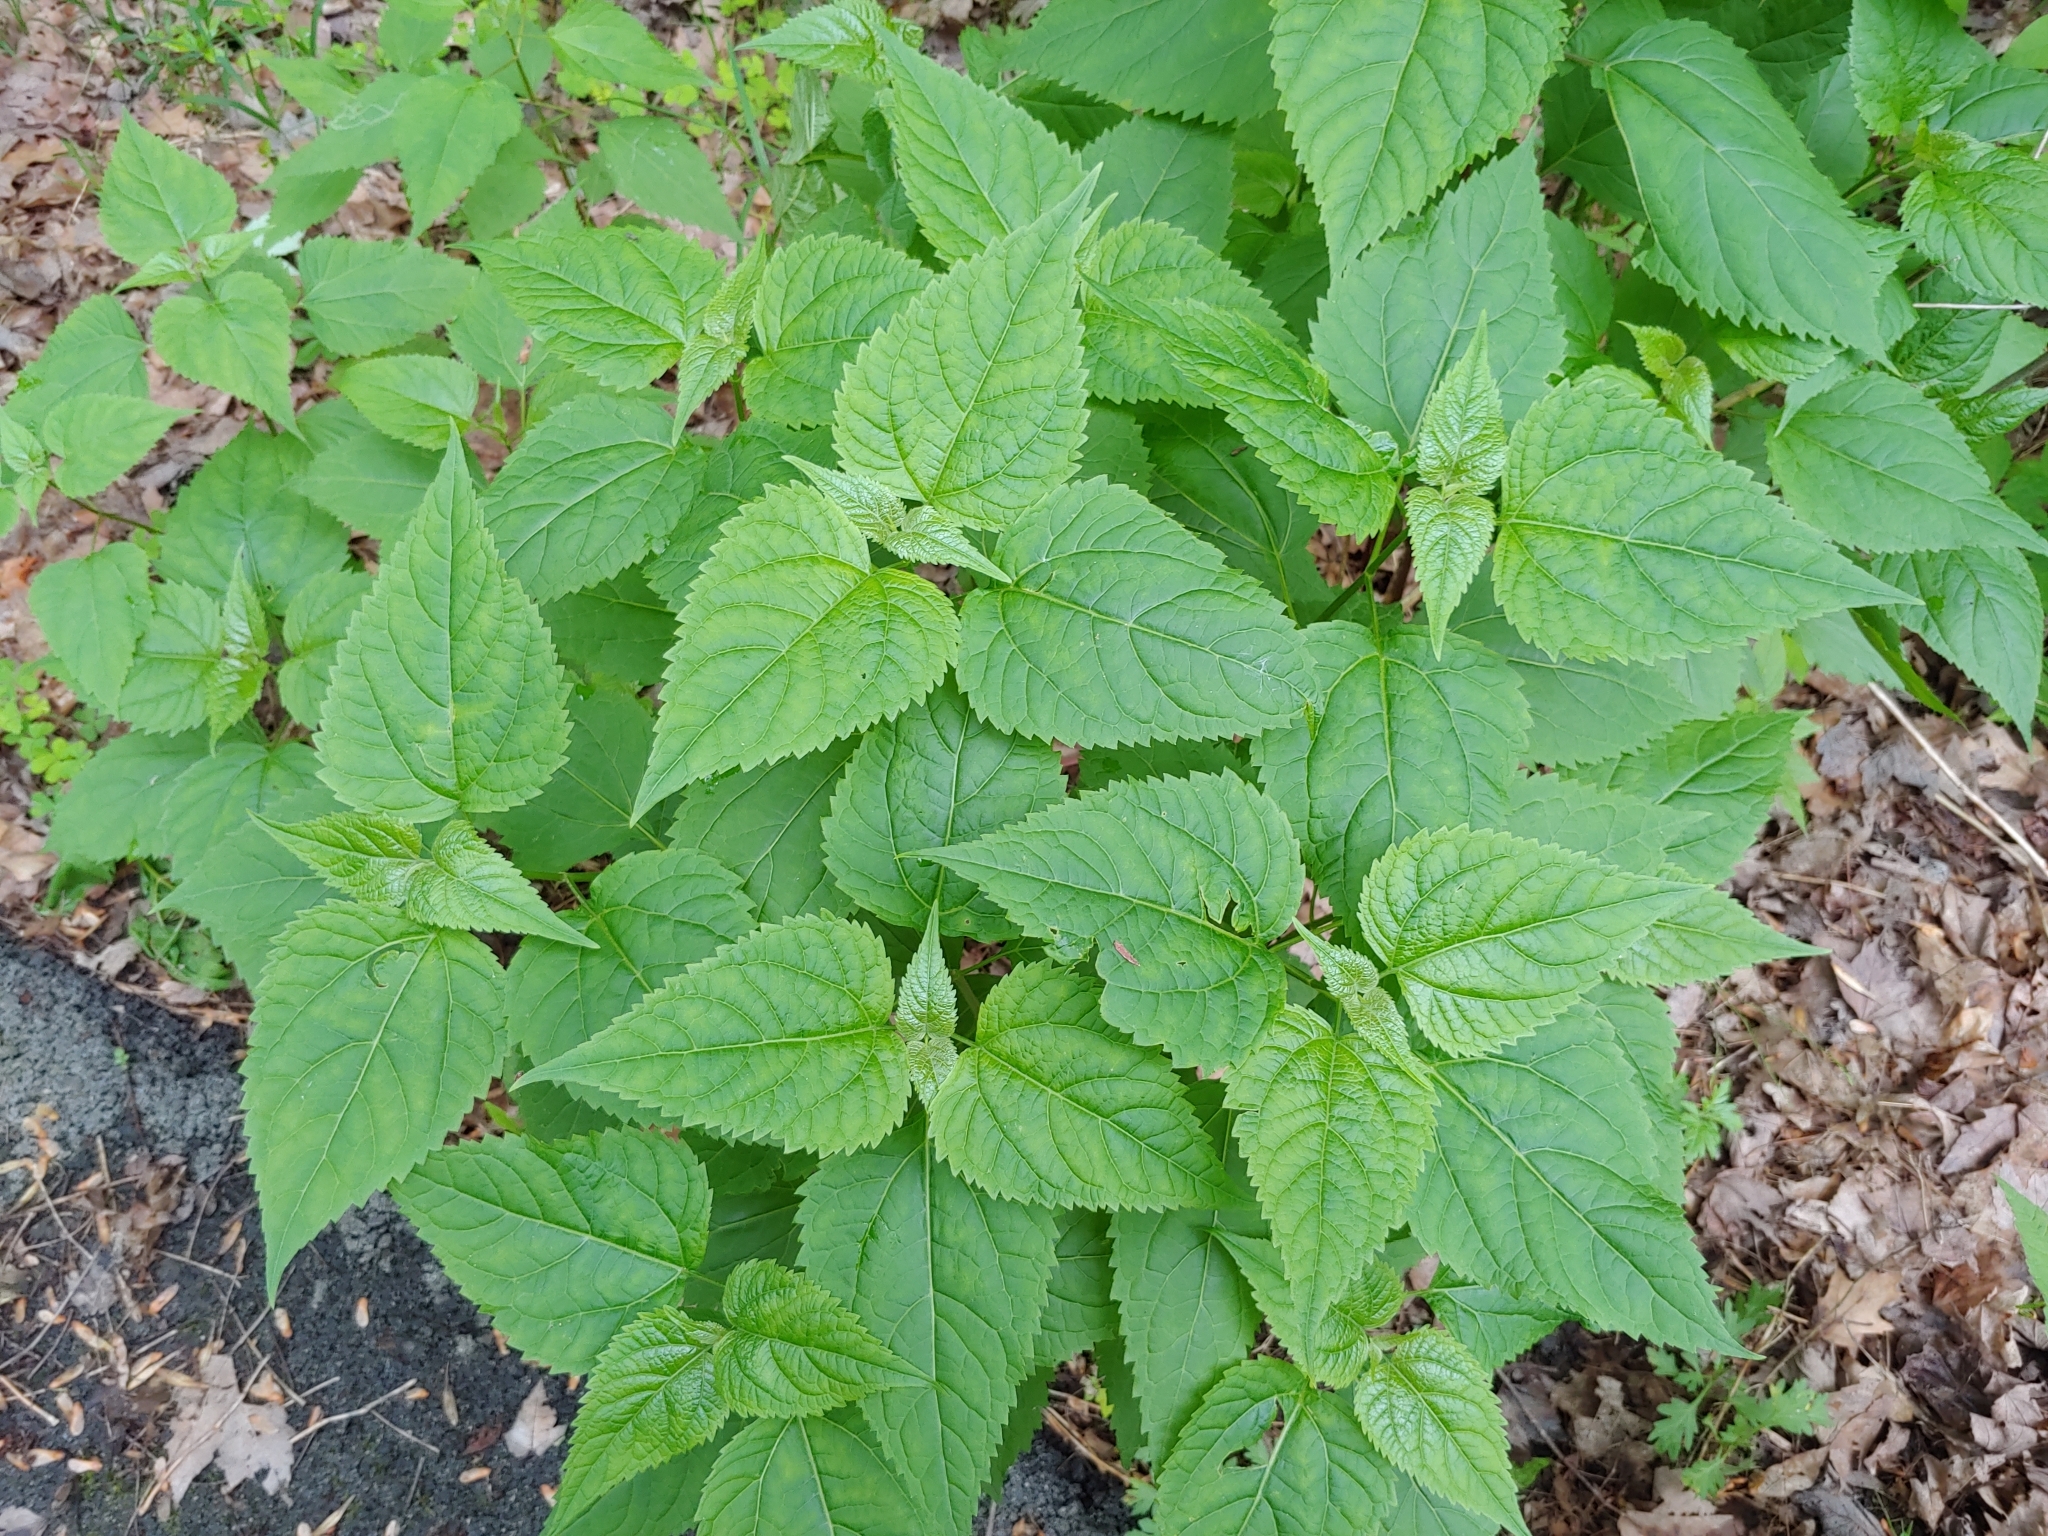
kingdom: Plantae
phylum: Tracheophyta
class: Magnoliopsida
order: Asterales
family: Asteraceae
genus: Ageratina
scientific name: Ageratina altissima
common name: White snakeroot
